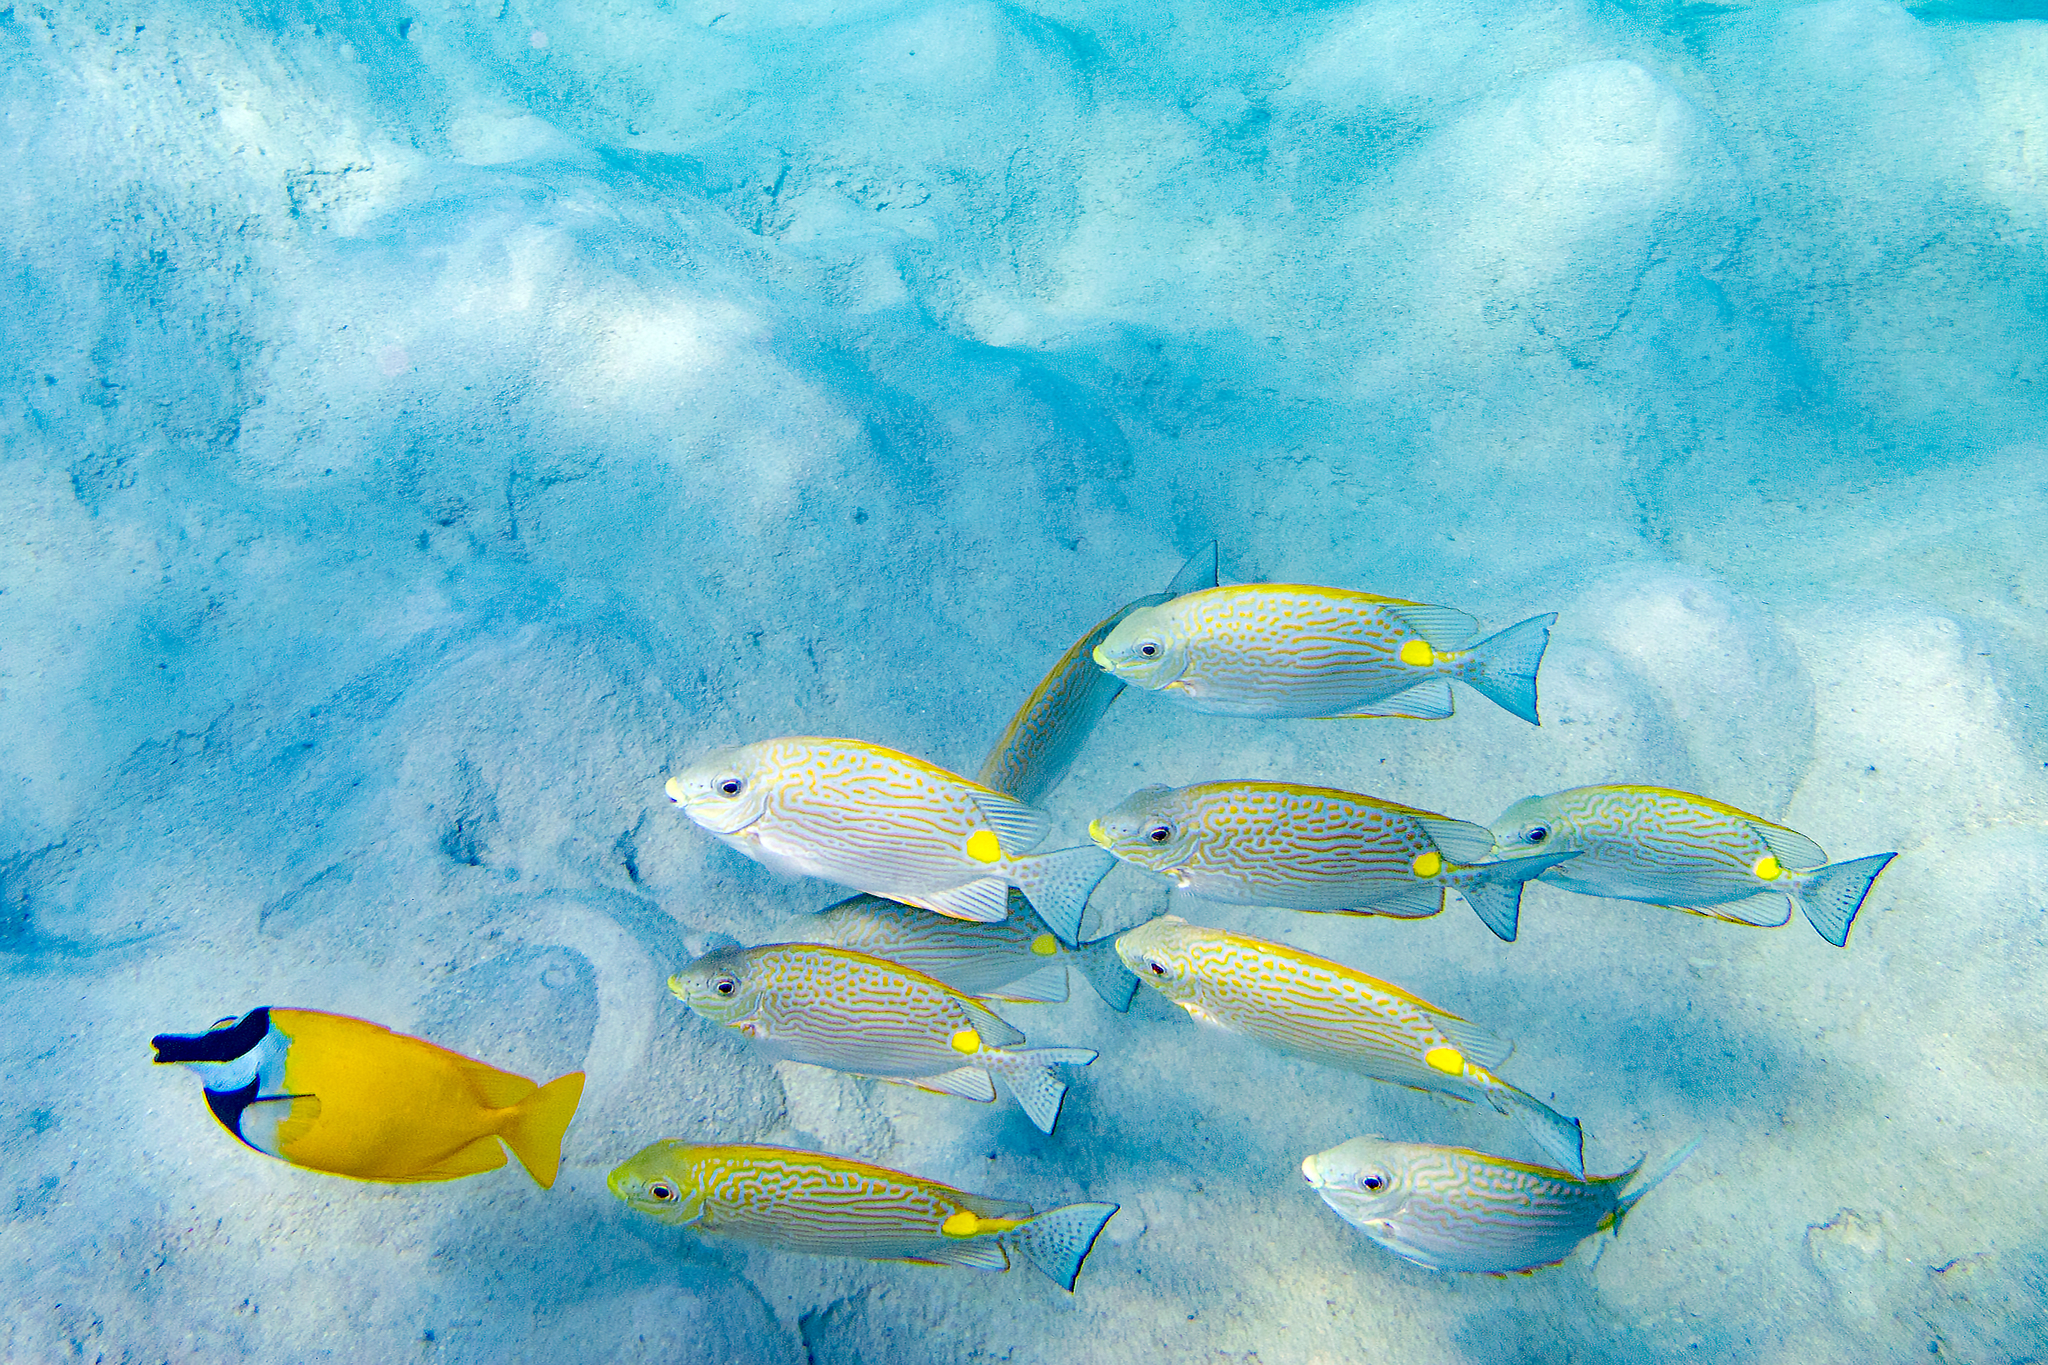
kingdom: Animalia
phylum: Chordata
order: Perciformes
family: Siganidae
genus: Siganus
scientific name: Siganus vulpinus
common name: Foxface
